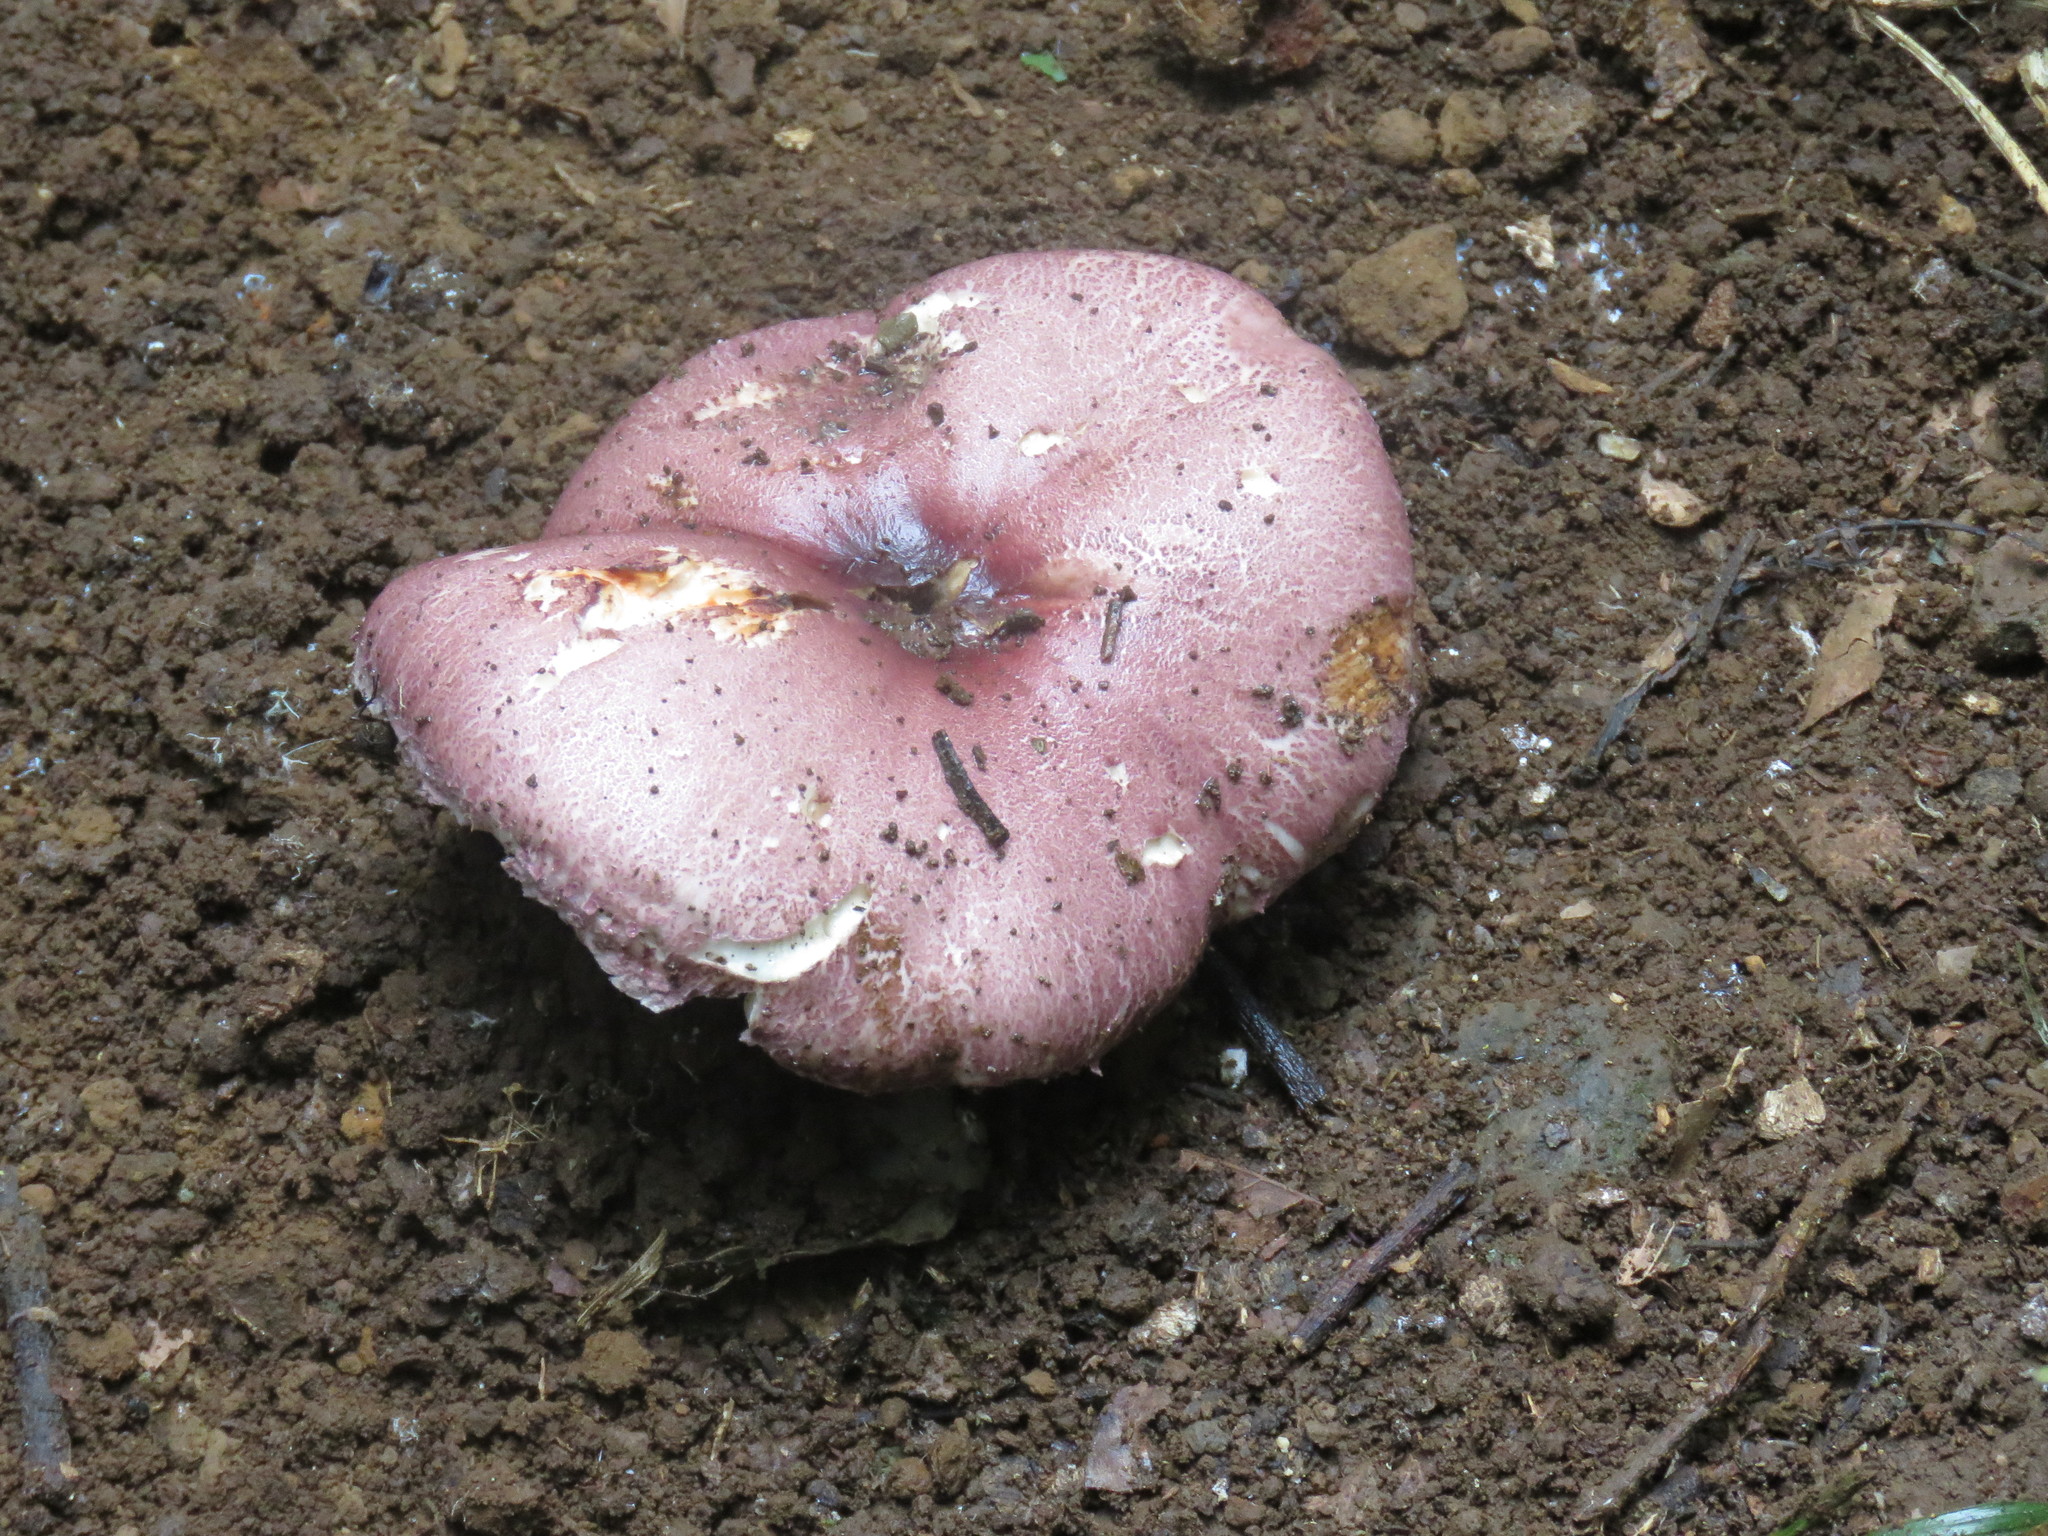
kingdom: Fungi
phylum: Basidiomycota
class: Agaricomycetes
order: Agaricales
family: Agaricaceae
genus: Leucoagaricus
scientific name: Leucoagaricus lilaceus
